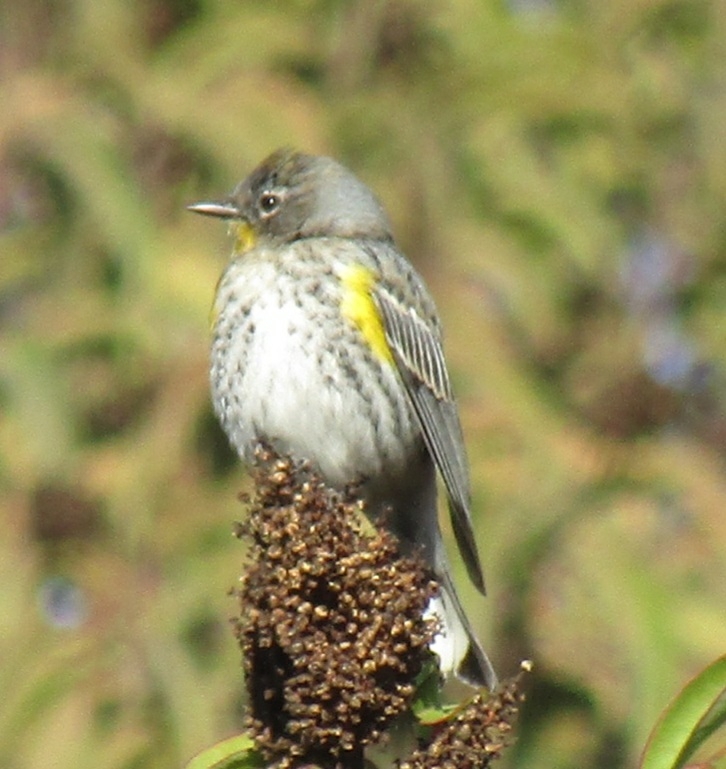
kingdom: Animalia
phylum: Chordata
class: Aves
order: Passeriformes
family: Parulidae
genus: Setophaga
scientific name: Setophaga coronata
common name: Myrtle warbler
